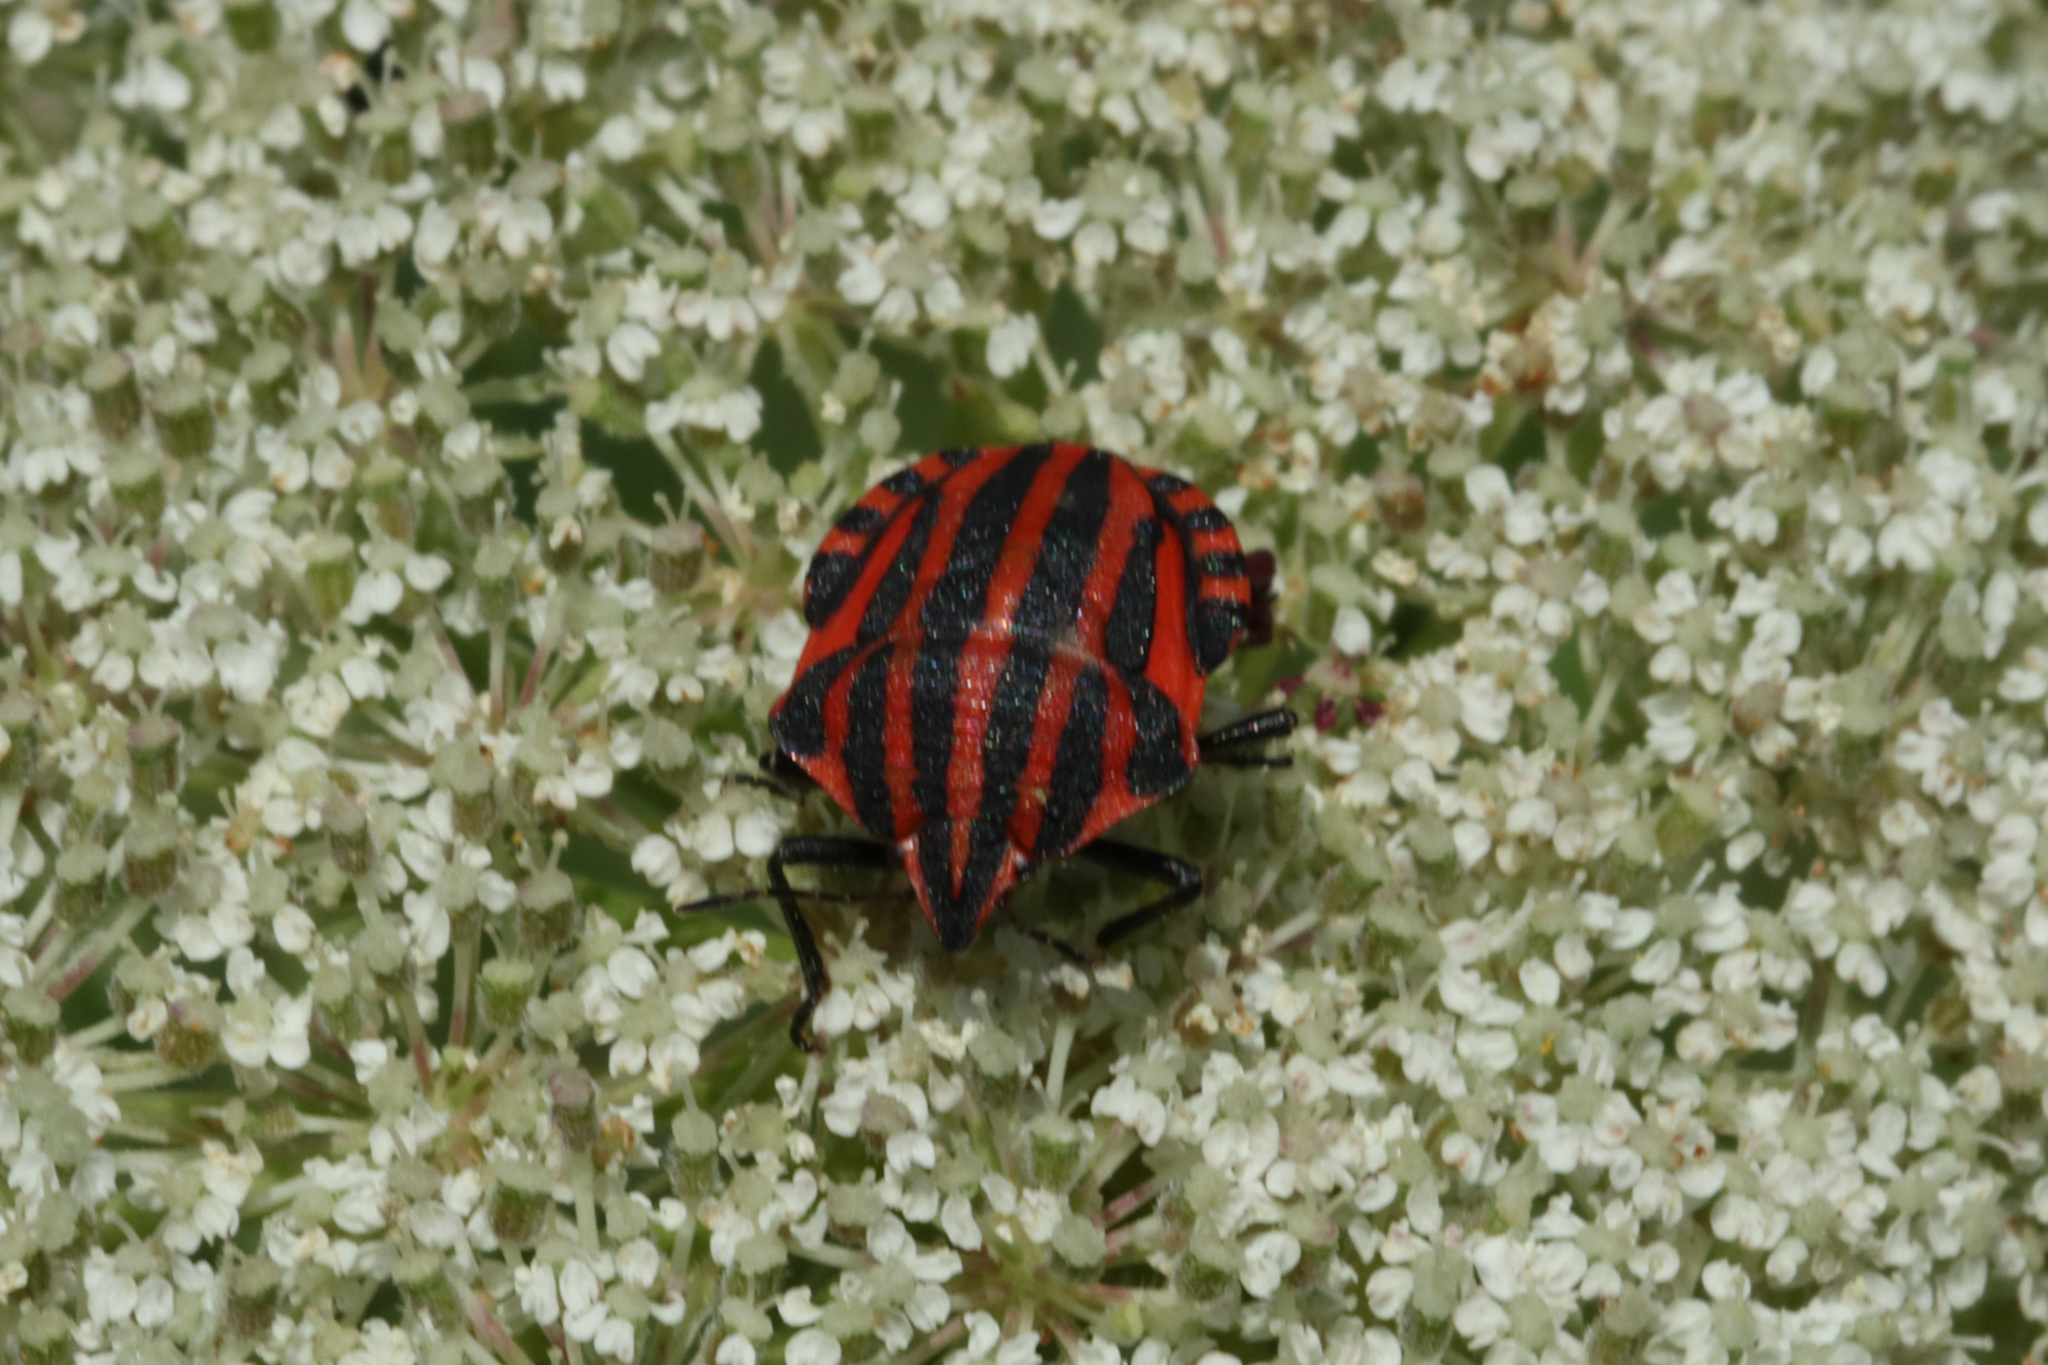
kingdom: Animalia
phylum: Arthropoda
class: Insecta
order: Hemiptera
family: Pentatomidae
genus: Graphosoma
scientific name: Graphosoma italicum
